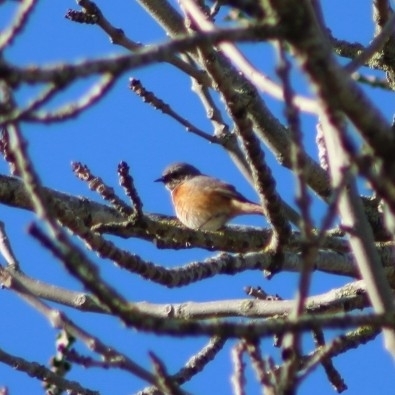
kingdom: Animalia
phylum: Chordata
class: Aves
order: Passeriformes
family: Muscicapidae
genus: Phoenicurus
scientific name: Phoenicurus phoenicurus
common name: Common redstart
